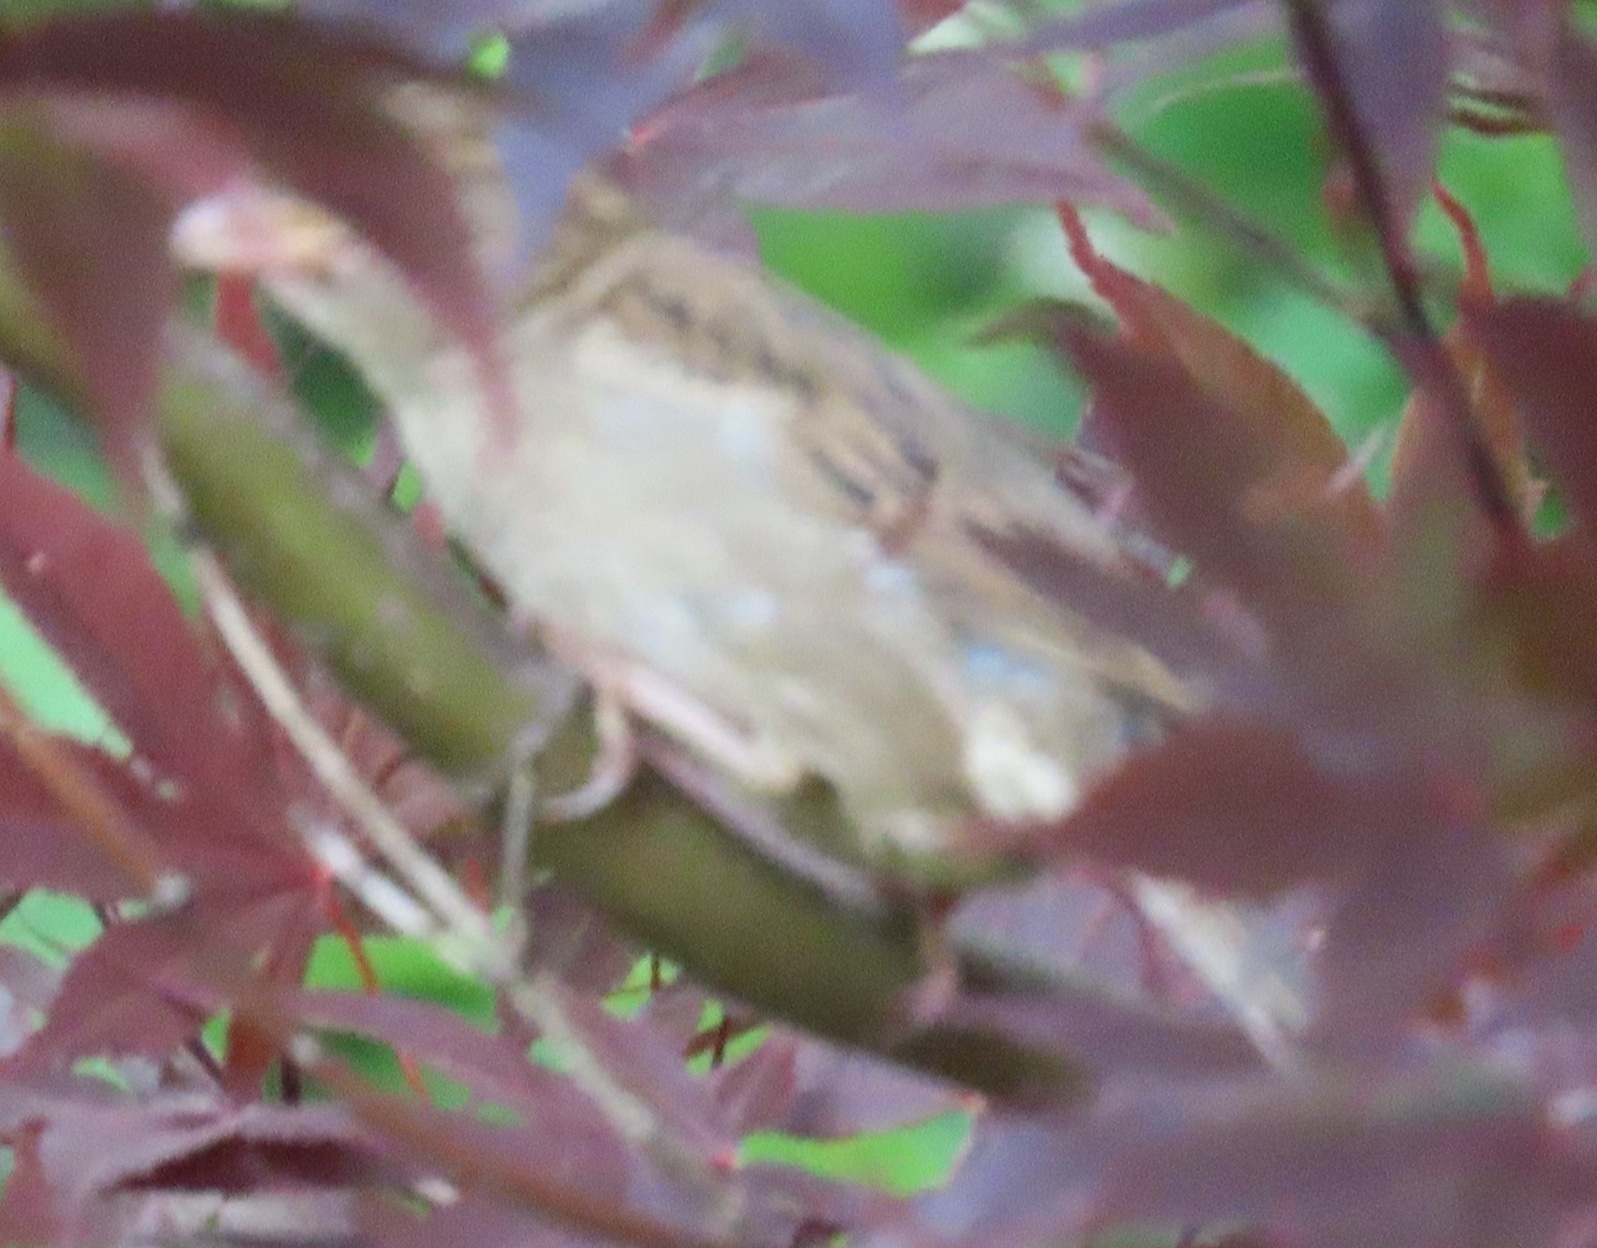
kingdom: Animalia
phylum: Chordata
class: Aves
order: Passeriformes
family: Passeridae
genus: Passer
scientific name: Passer domesticus
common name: House sparrow
